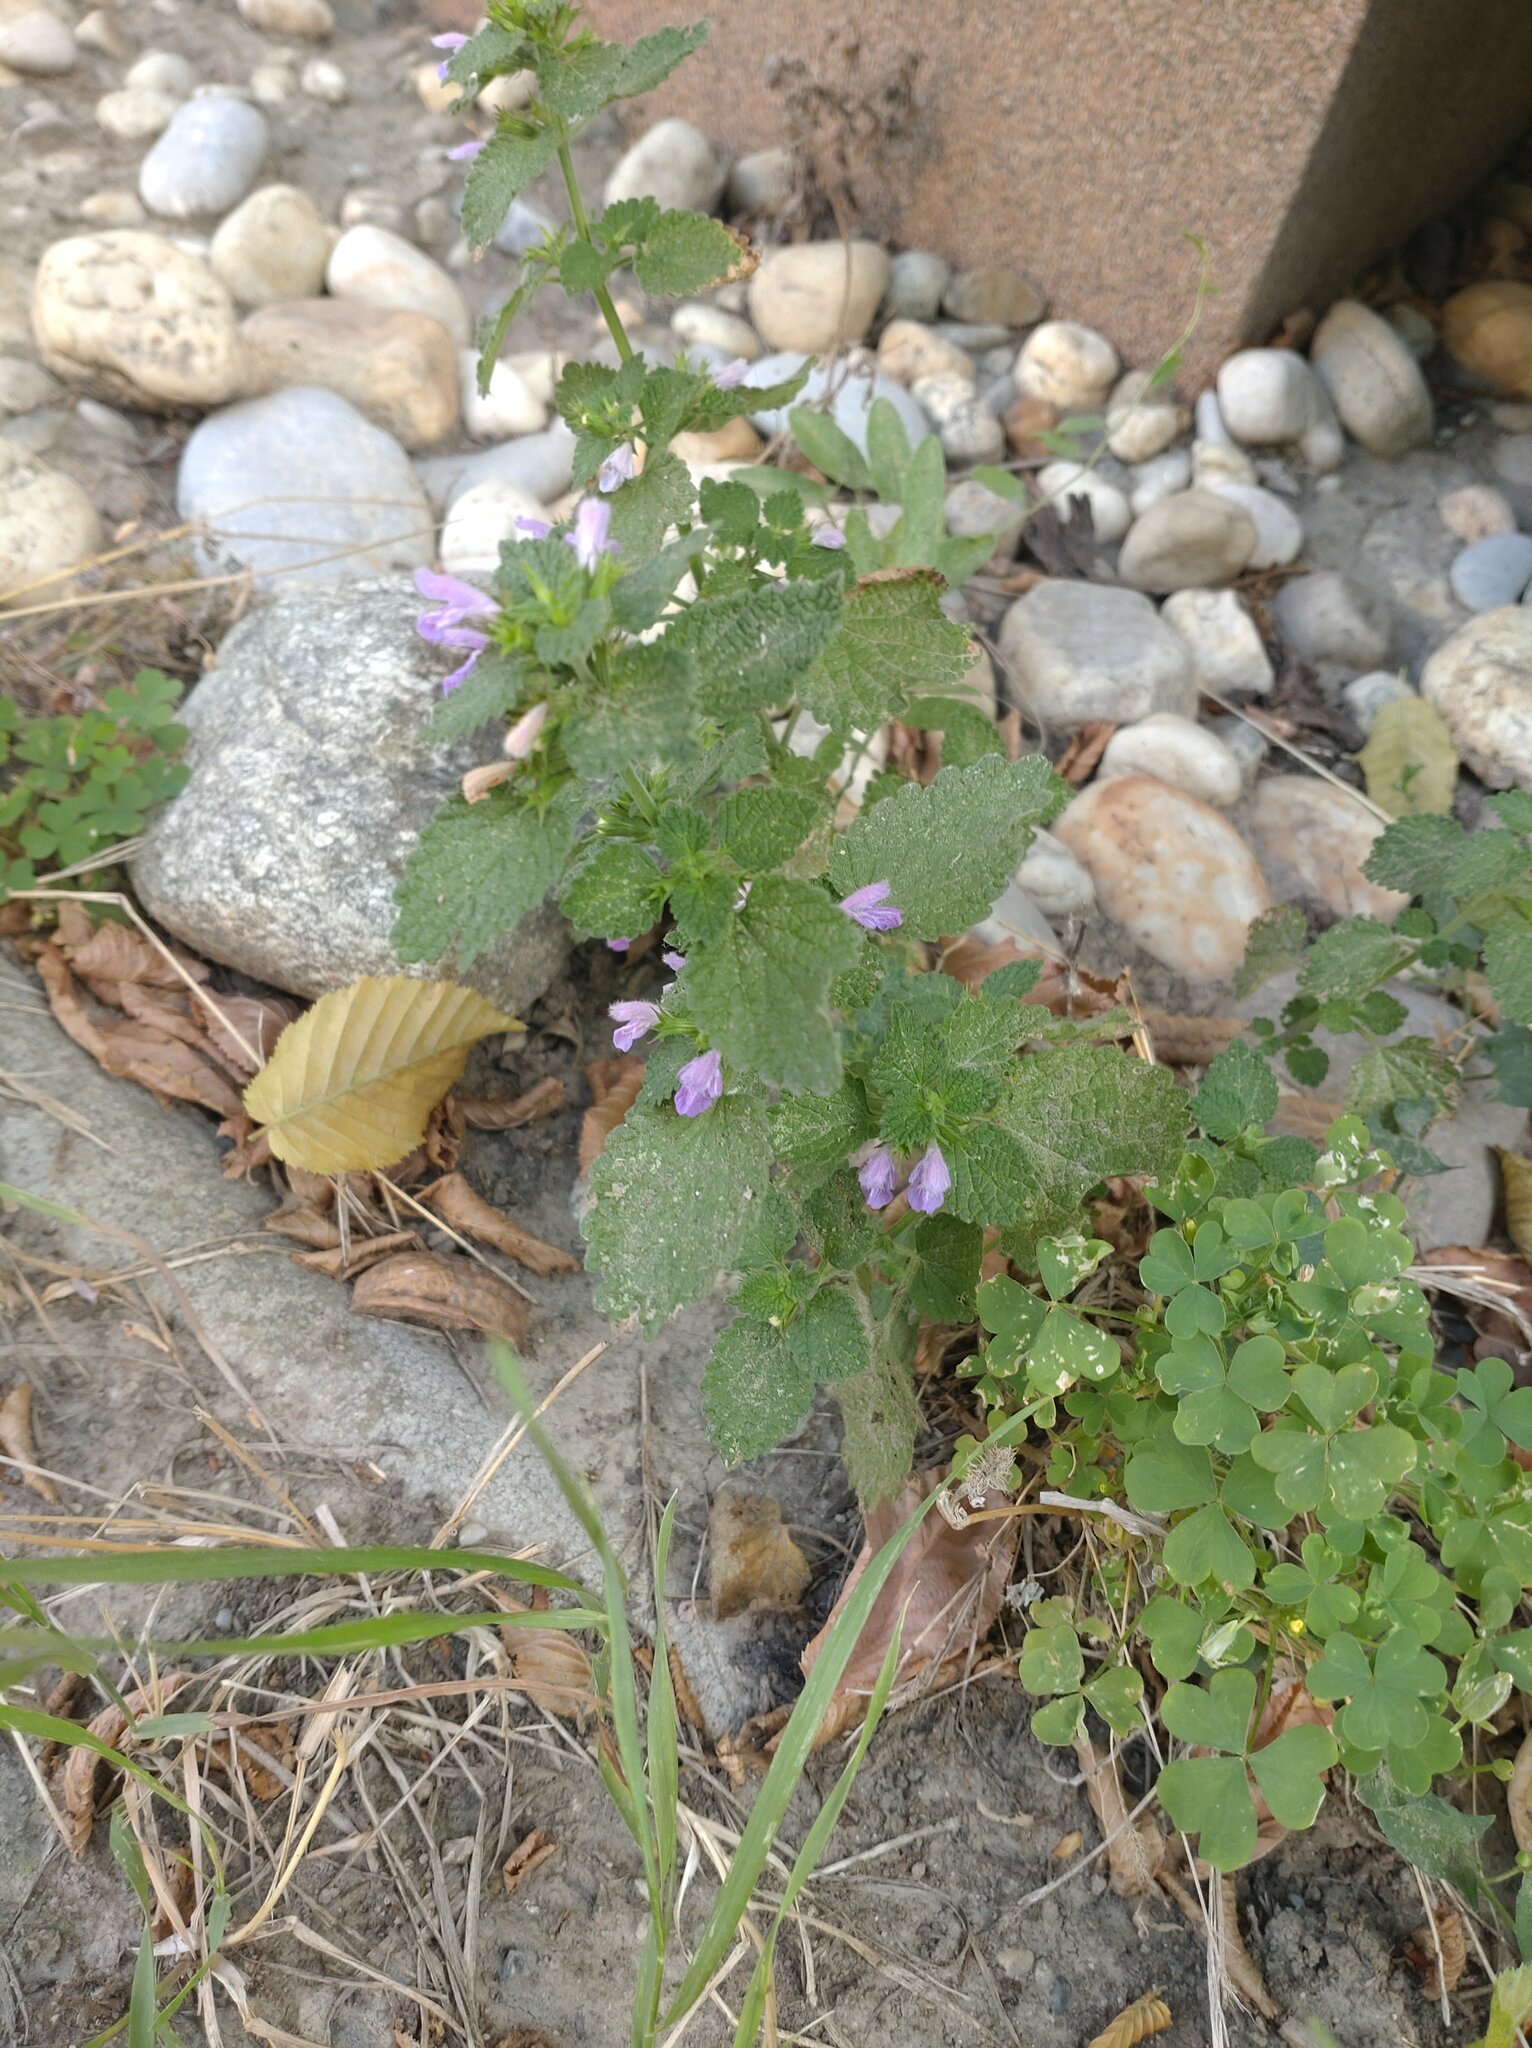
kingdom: Plantae
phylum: Tracheophyta
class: Magnoliopsida
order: Lamiales
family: Lamiaceae
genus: Ballota
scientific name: Ballota nigra
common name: Black horehound
